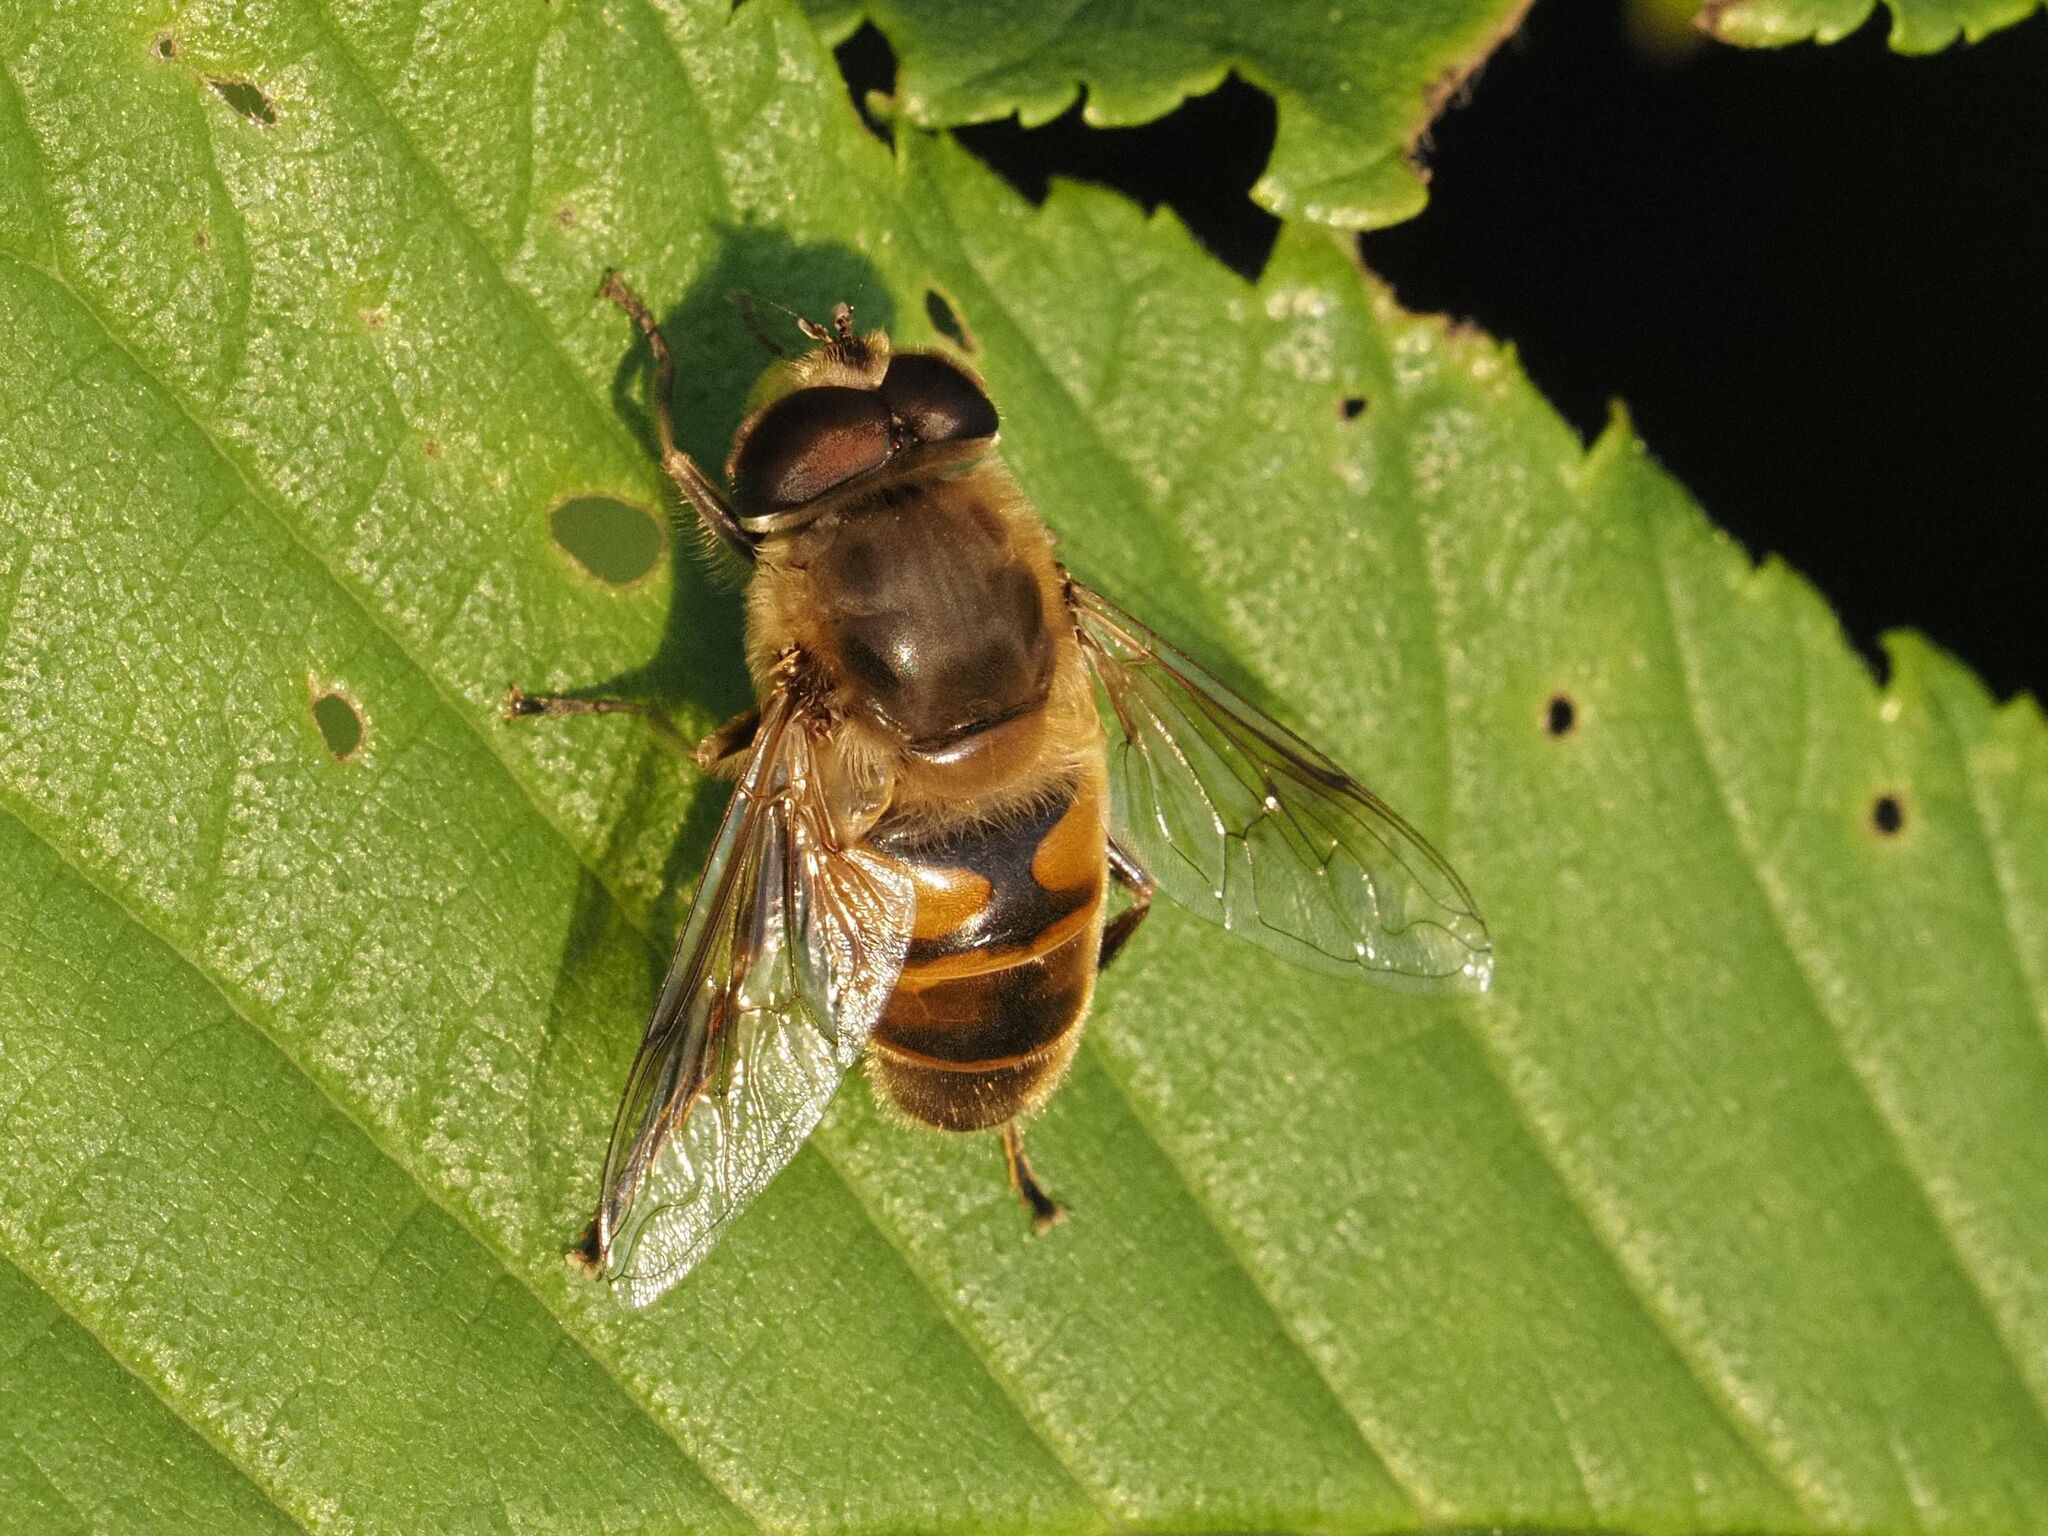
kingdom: Animalia
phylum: Arthropoda
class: Insecta
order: Diptera
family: Syrphidae
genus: Eristalis
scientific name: Eristalis tenax
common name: Drone fly
